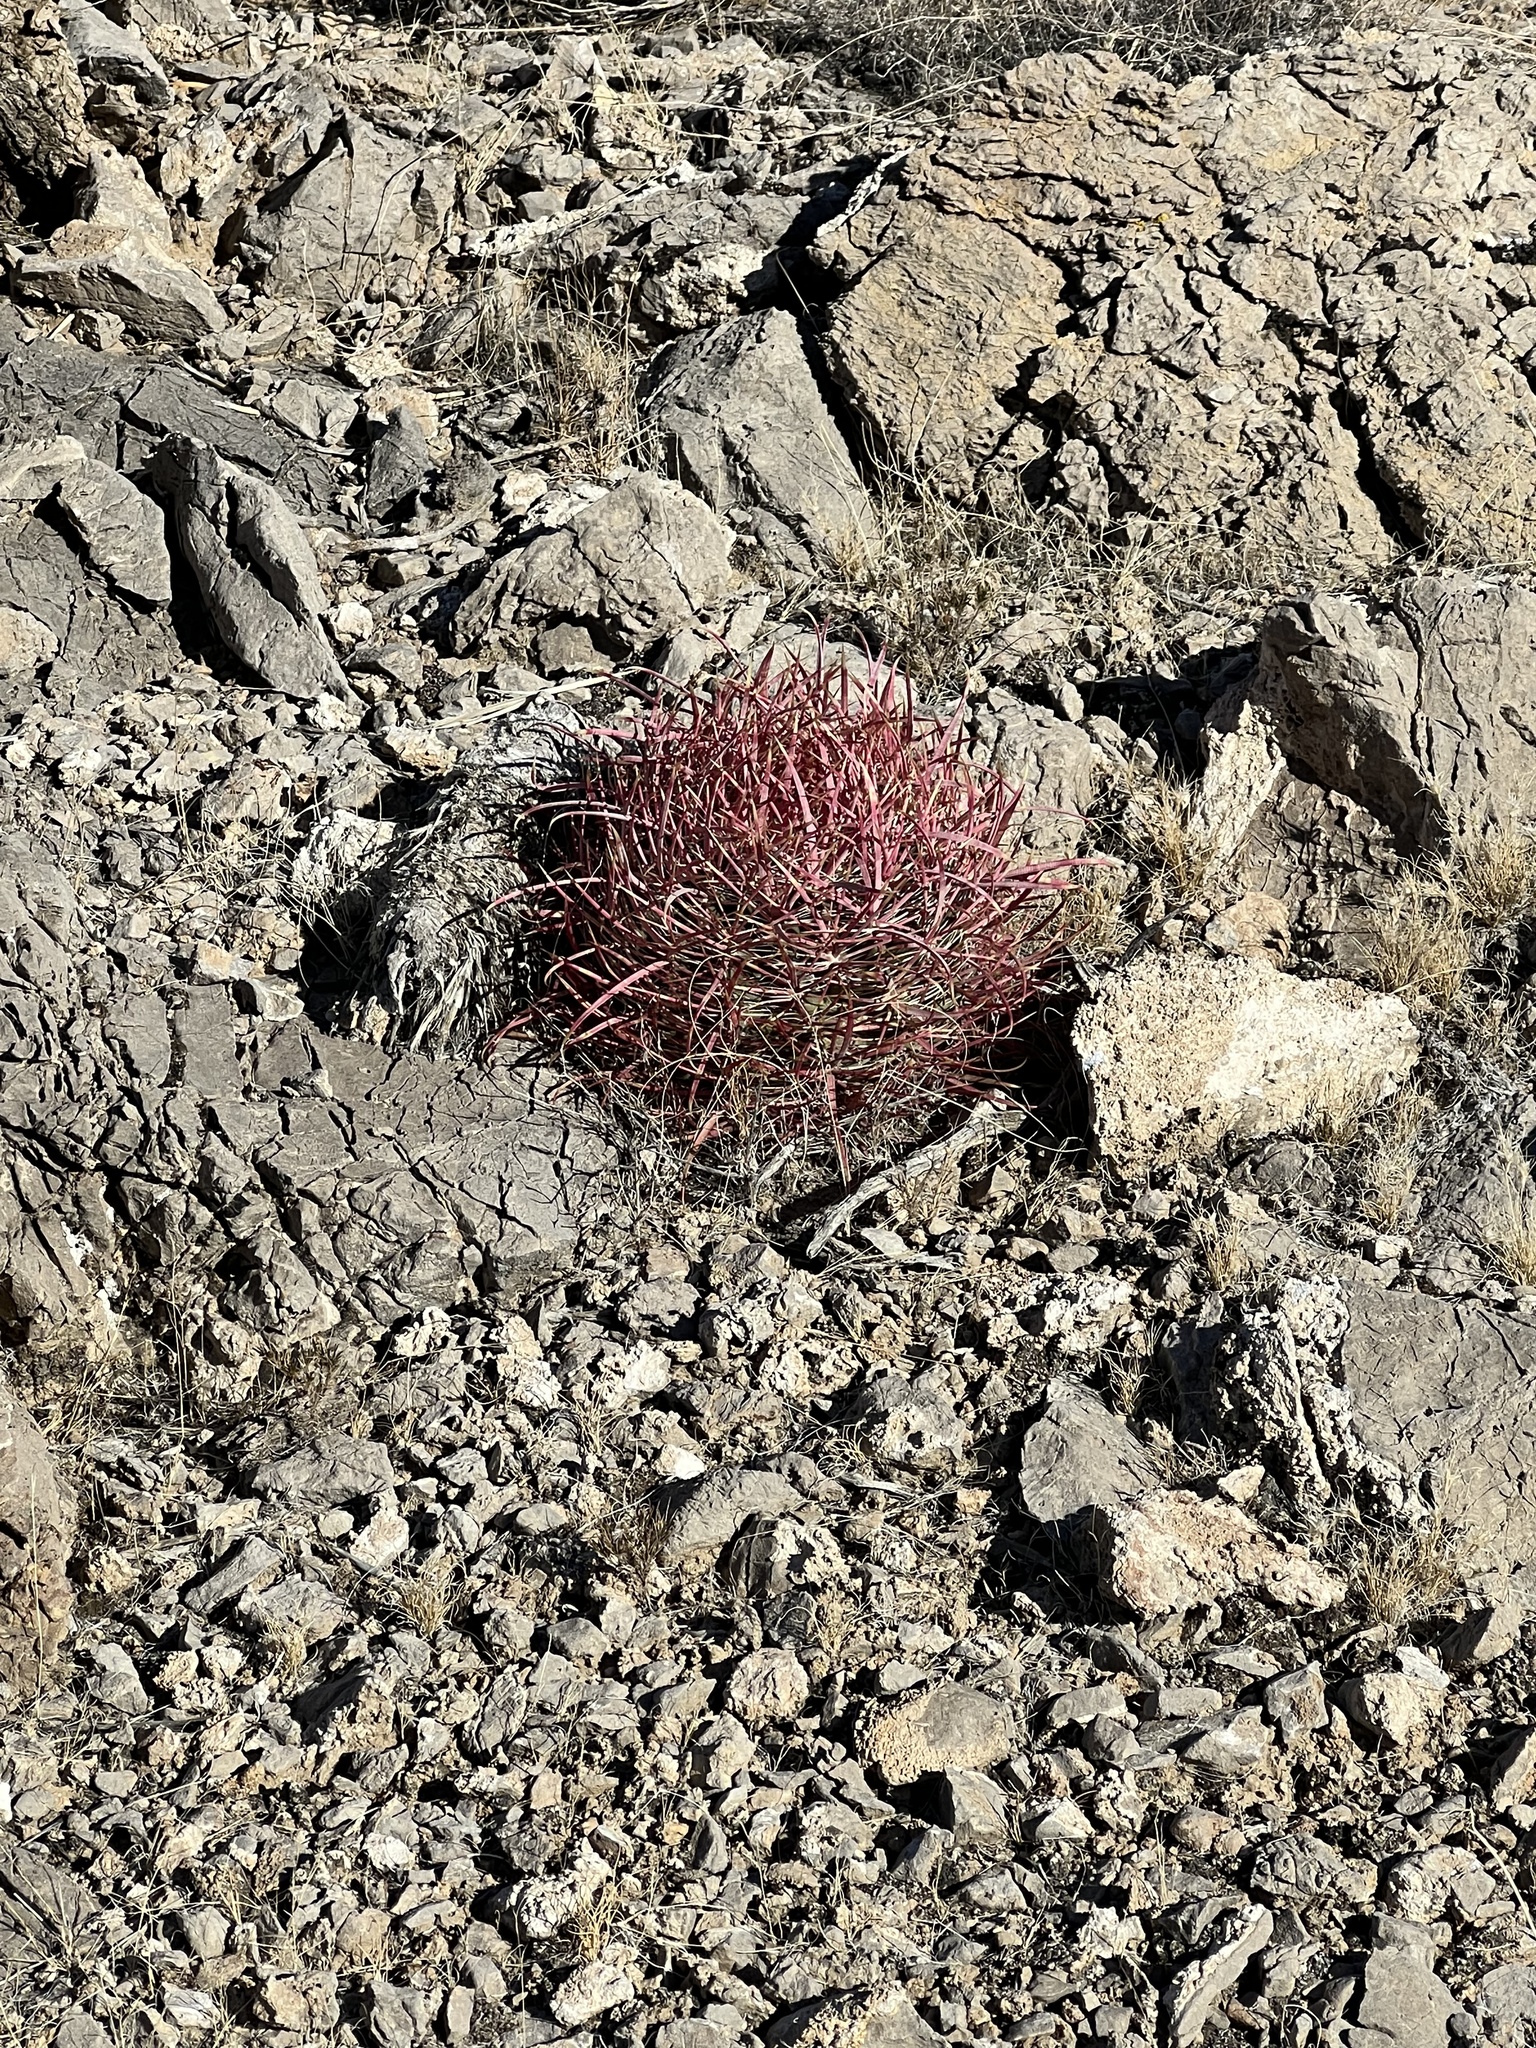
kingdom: Plantae
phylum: Tracheophyta
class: Magnoliopsida
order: Caryophyllales
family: Cactaceae
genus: Ferocactus
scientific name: Ferocactus cylindraceus
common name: California barrel cactus
